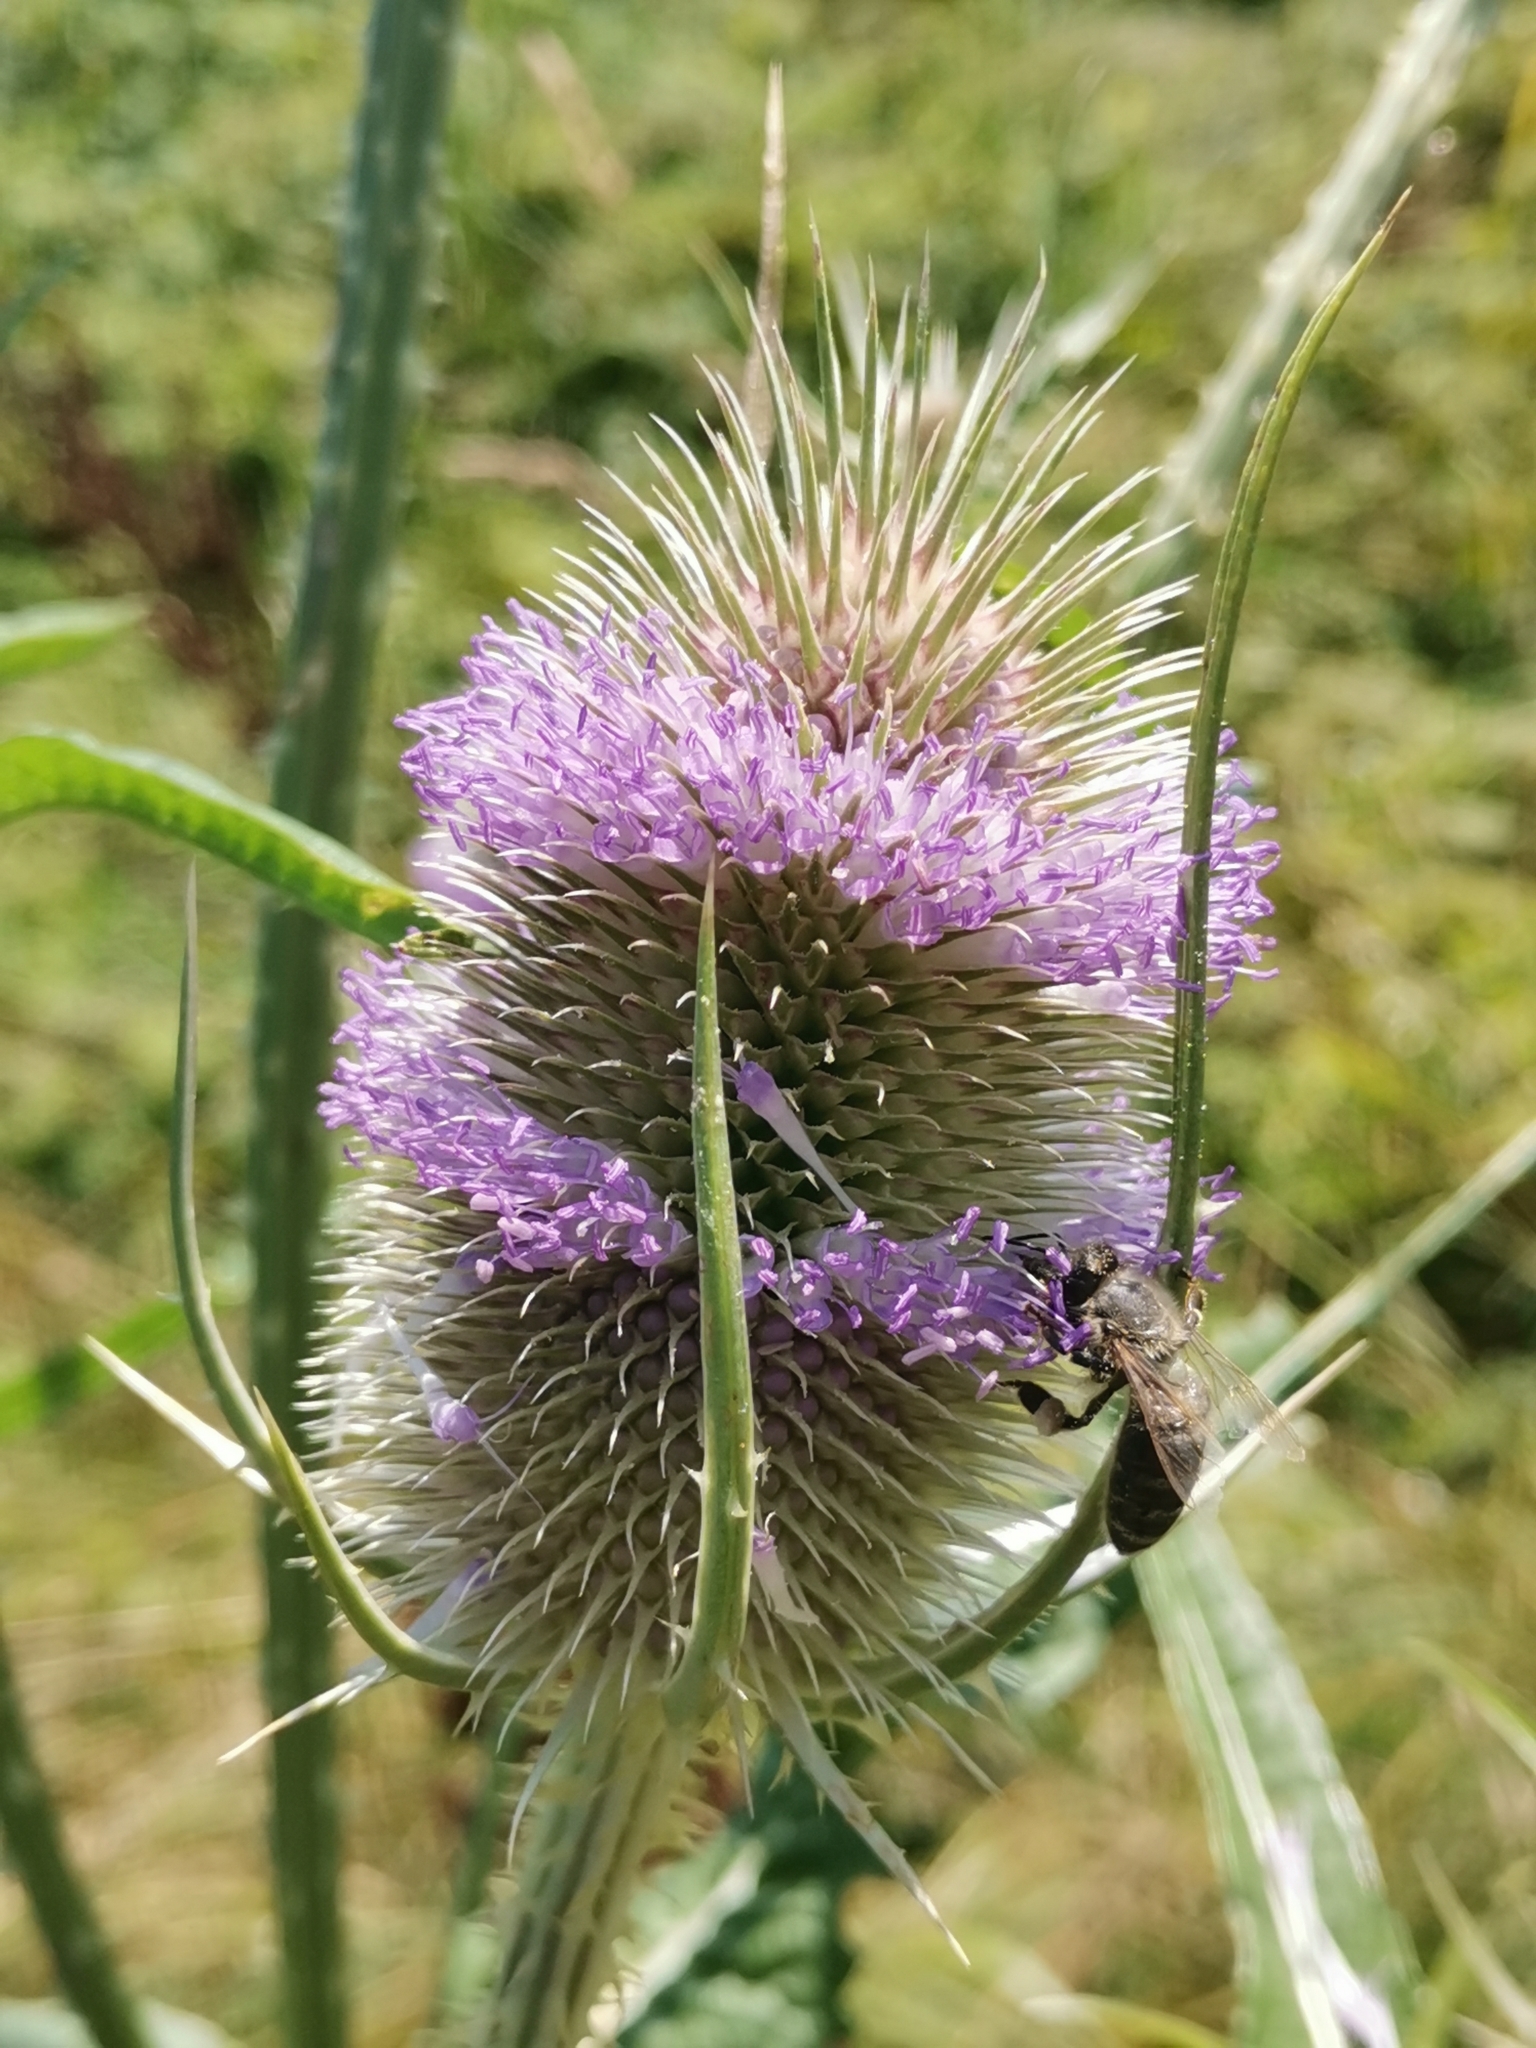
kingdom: Plantae
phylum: Tracheophyta
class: Magnoliopsida
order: Dipsacales
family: Caprifoliaceae
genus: Dipsacus
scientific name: Dipsacus fullonum
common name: Teasel
